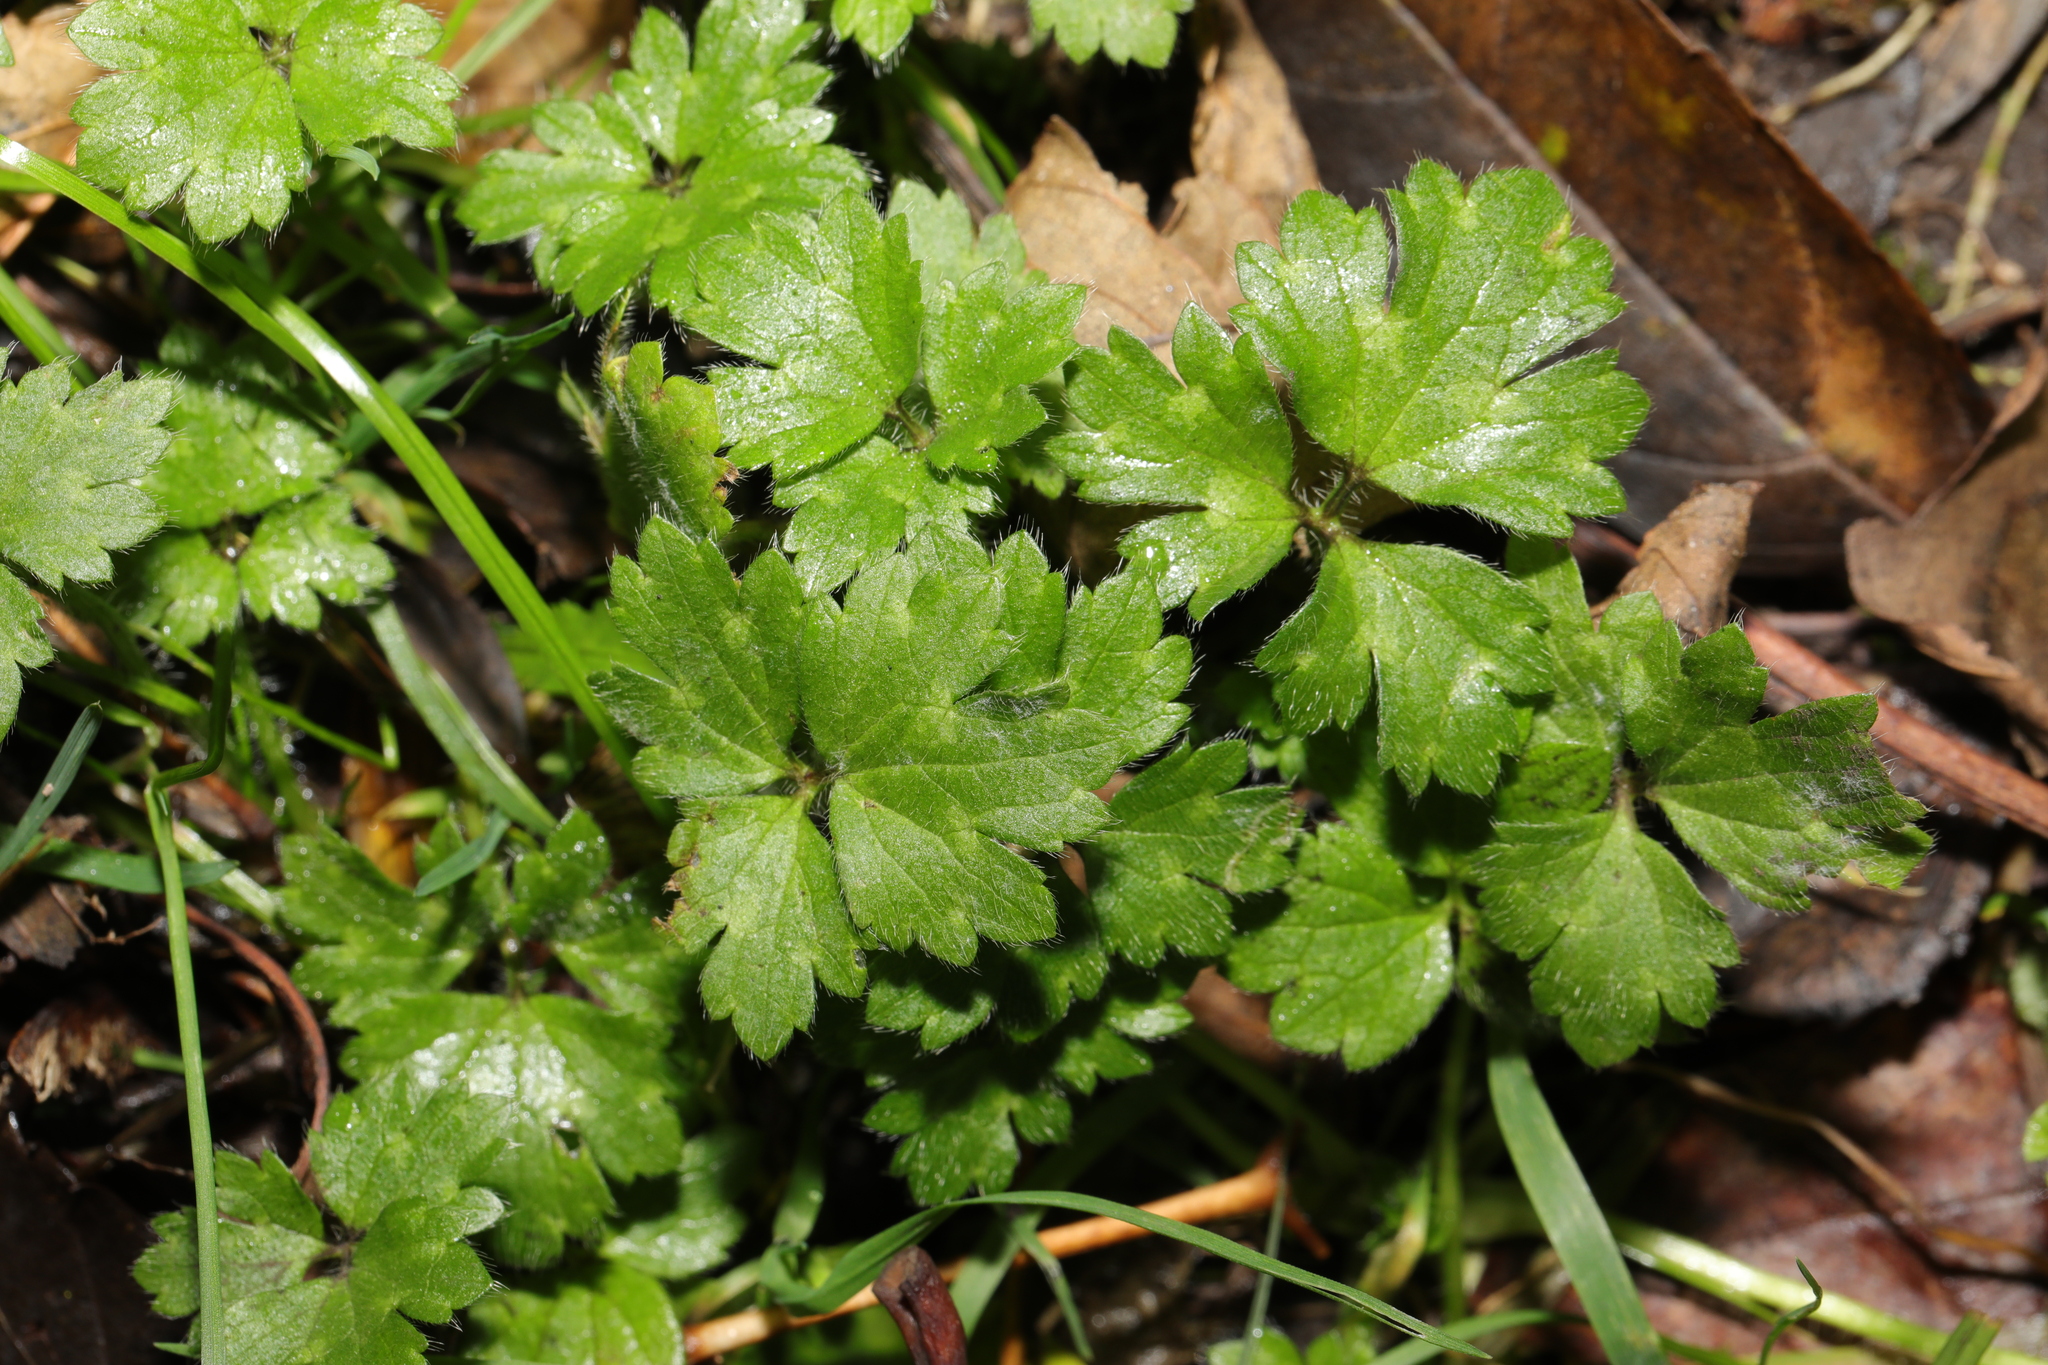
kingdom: Plantae
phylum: Tracheophyta
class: Magnoliopsida
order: Ranunculales
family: Ranunculaceae
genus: Ranunculus
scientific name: Ranunculus repens
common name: Creeping buttercup
